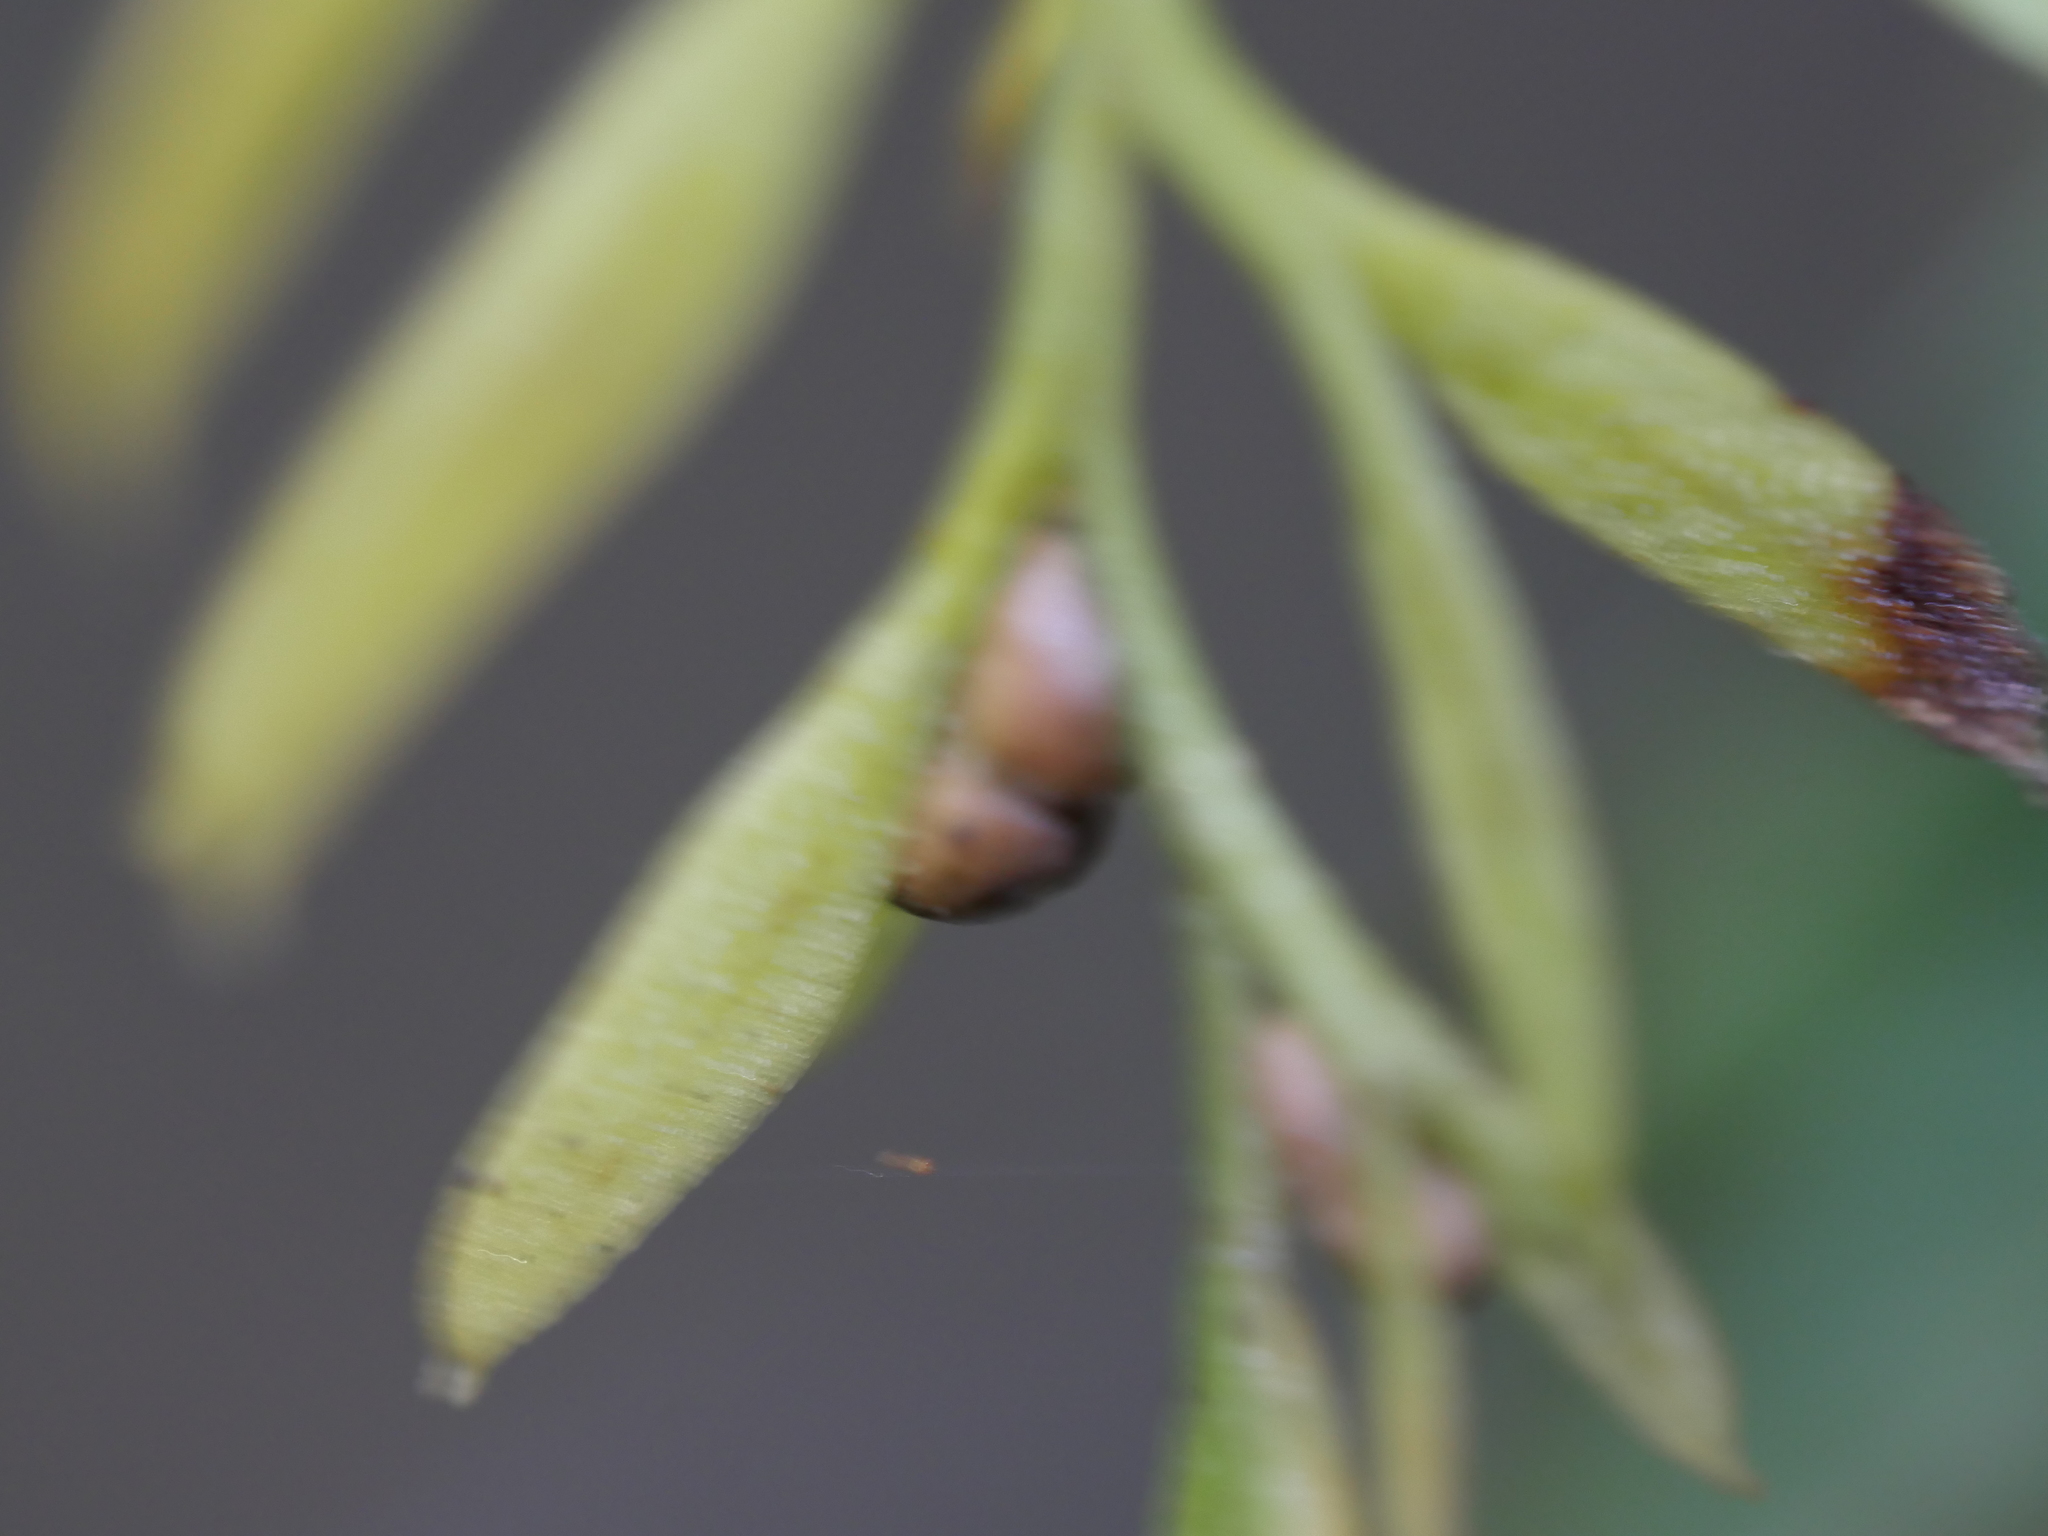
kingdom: Plantae
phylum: Tracheophyta
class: Polypodiopsida
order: Psilotales
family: Psilotaceae
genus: Tmesipteris
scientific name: Tmesipteris elongata
